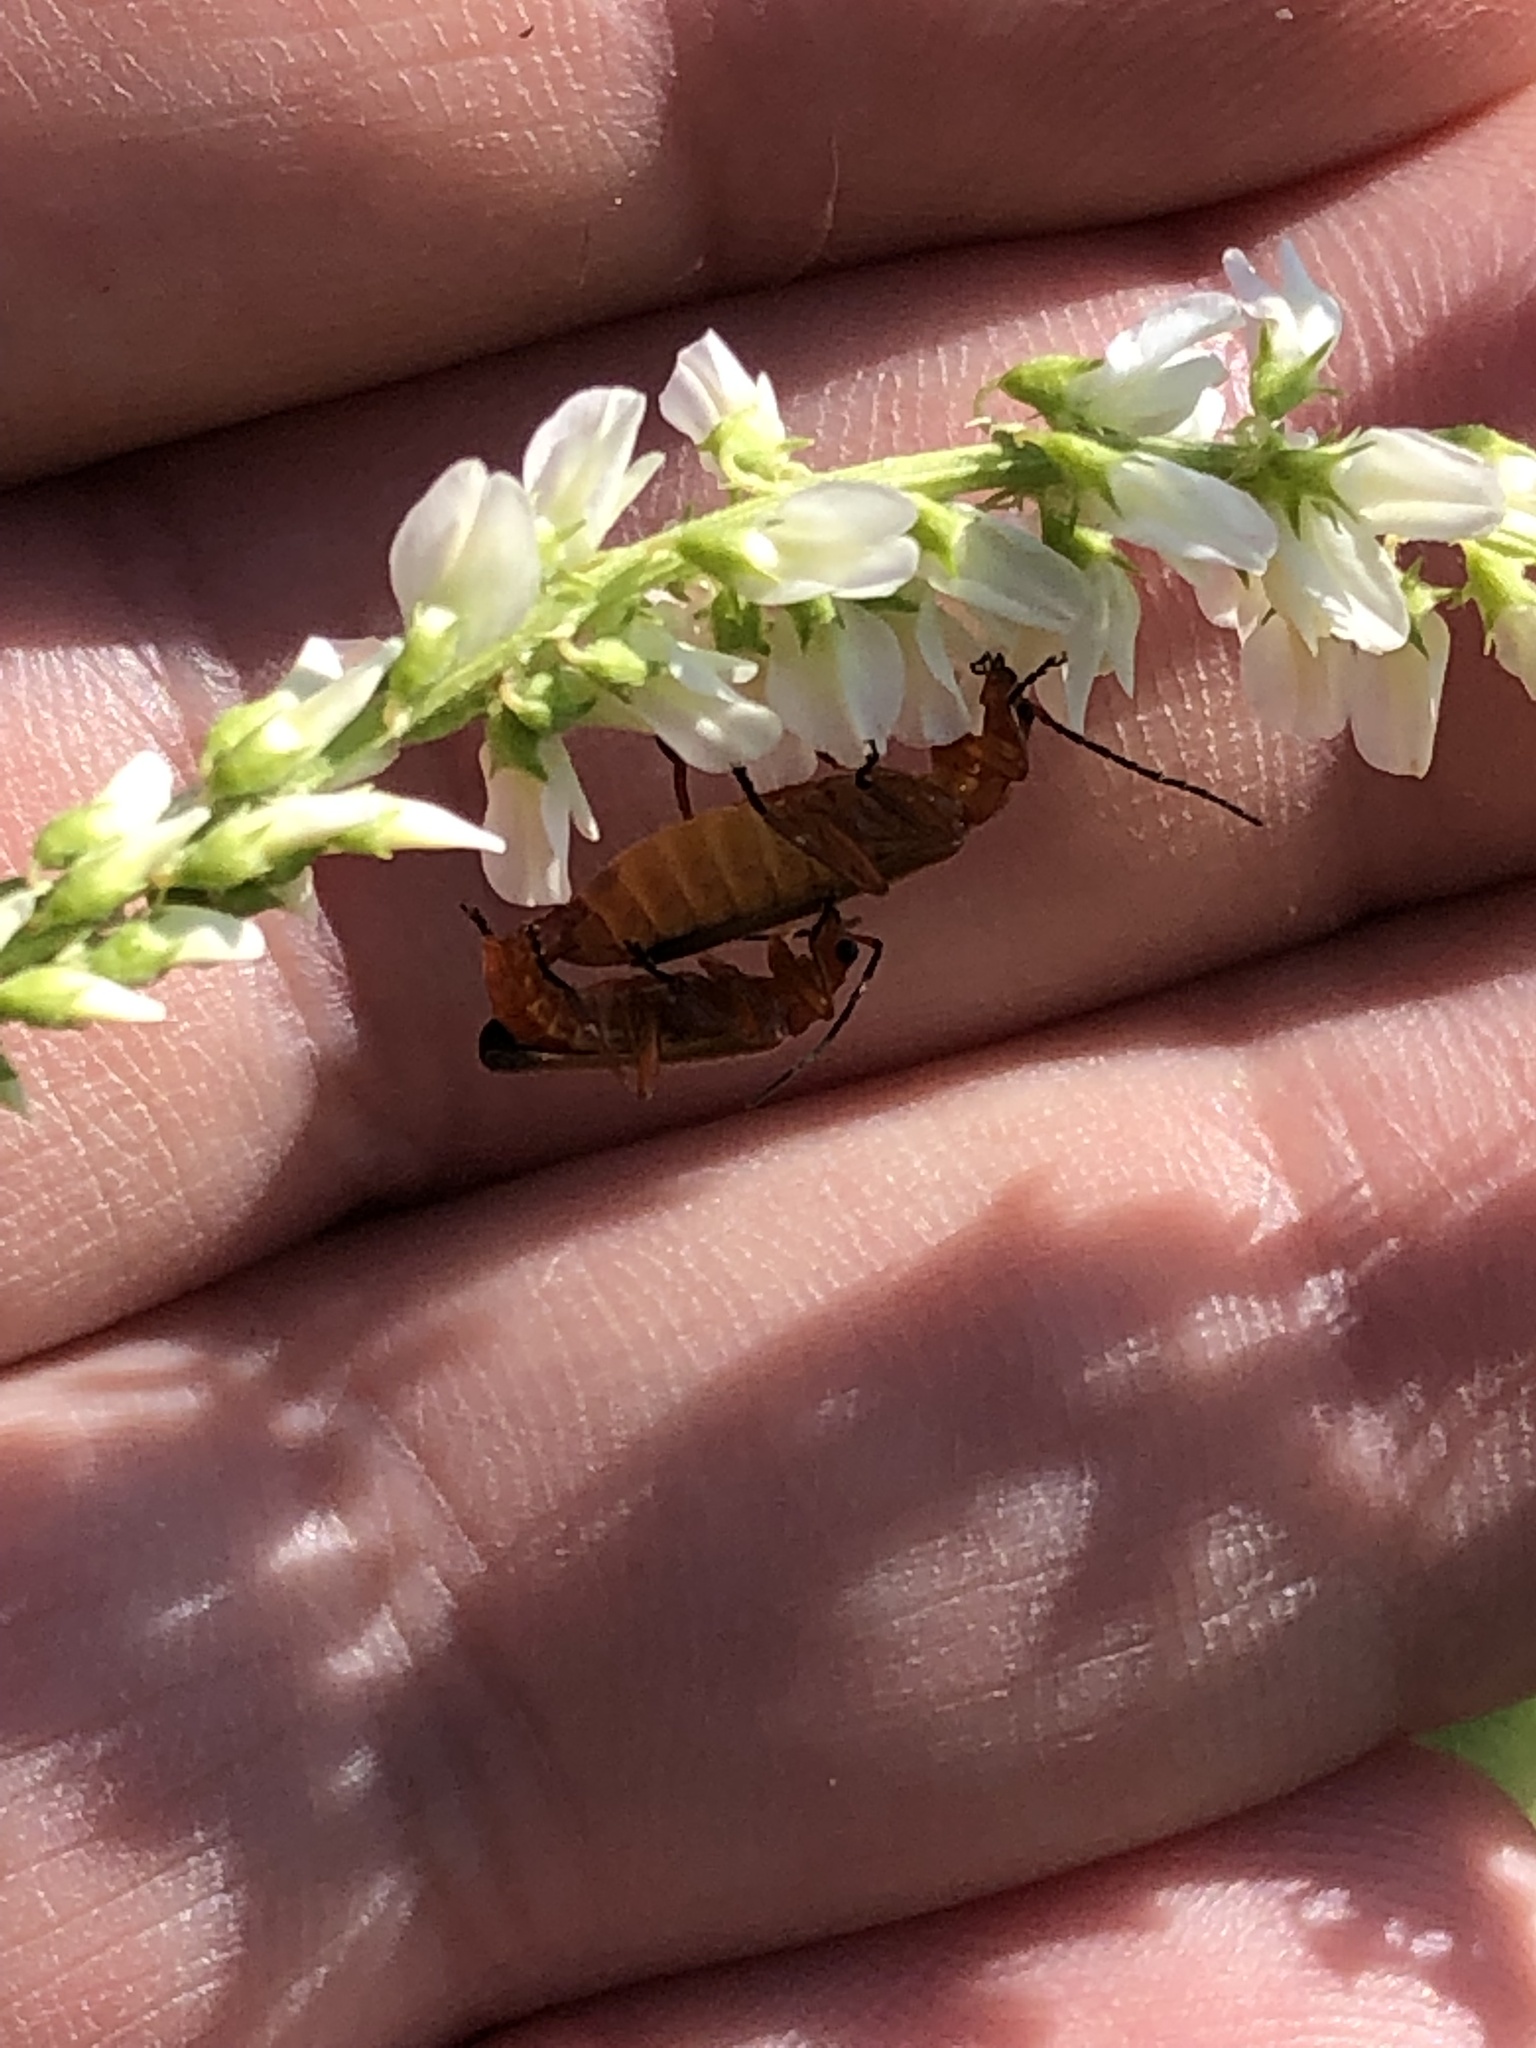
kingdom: Animalia
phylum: Arthropoda
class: Insecta
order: Coleoptera
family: Cantharidae
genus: Rhagonycha
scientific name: Rhagonycha fulva
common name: Common red soldier beetle
